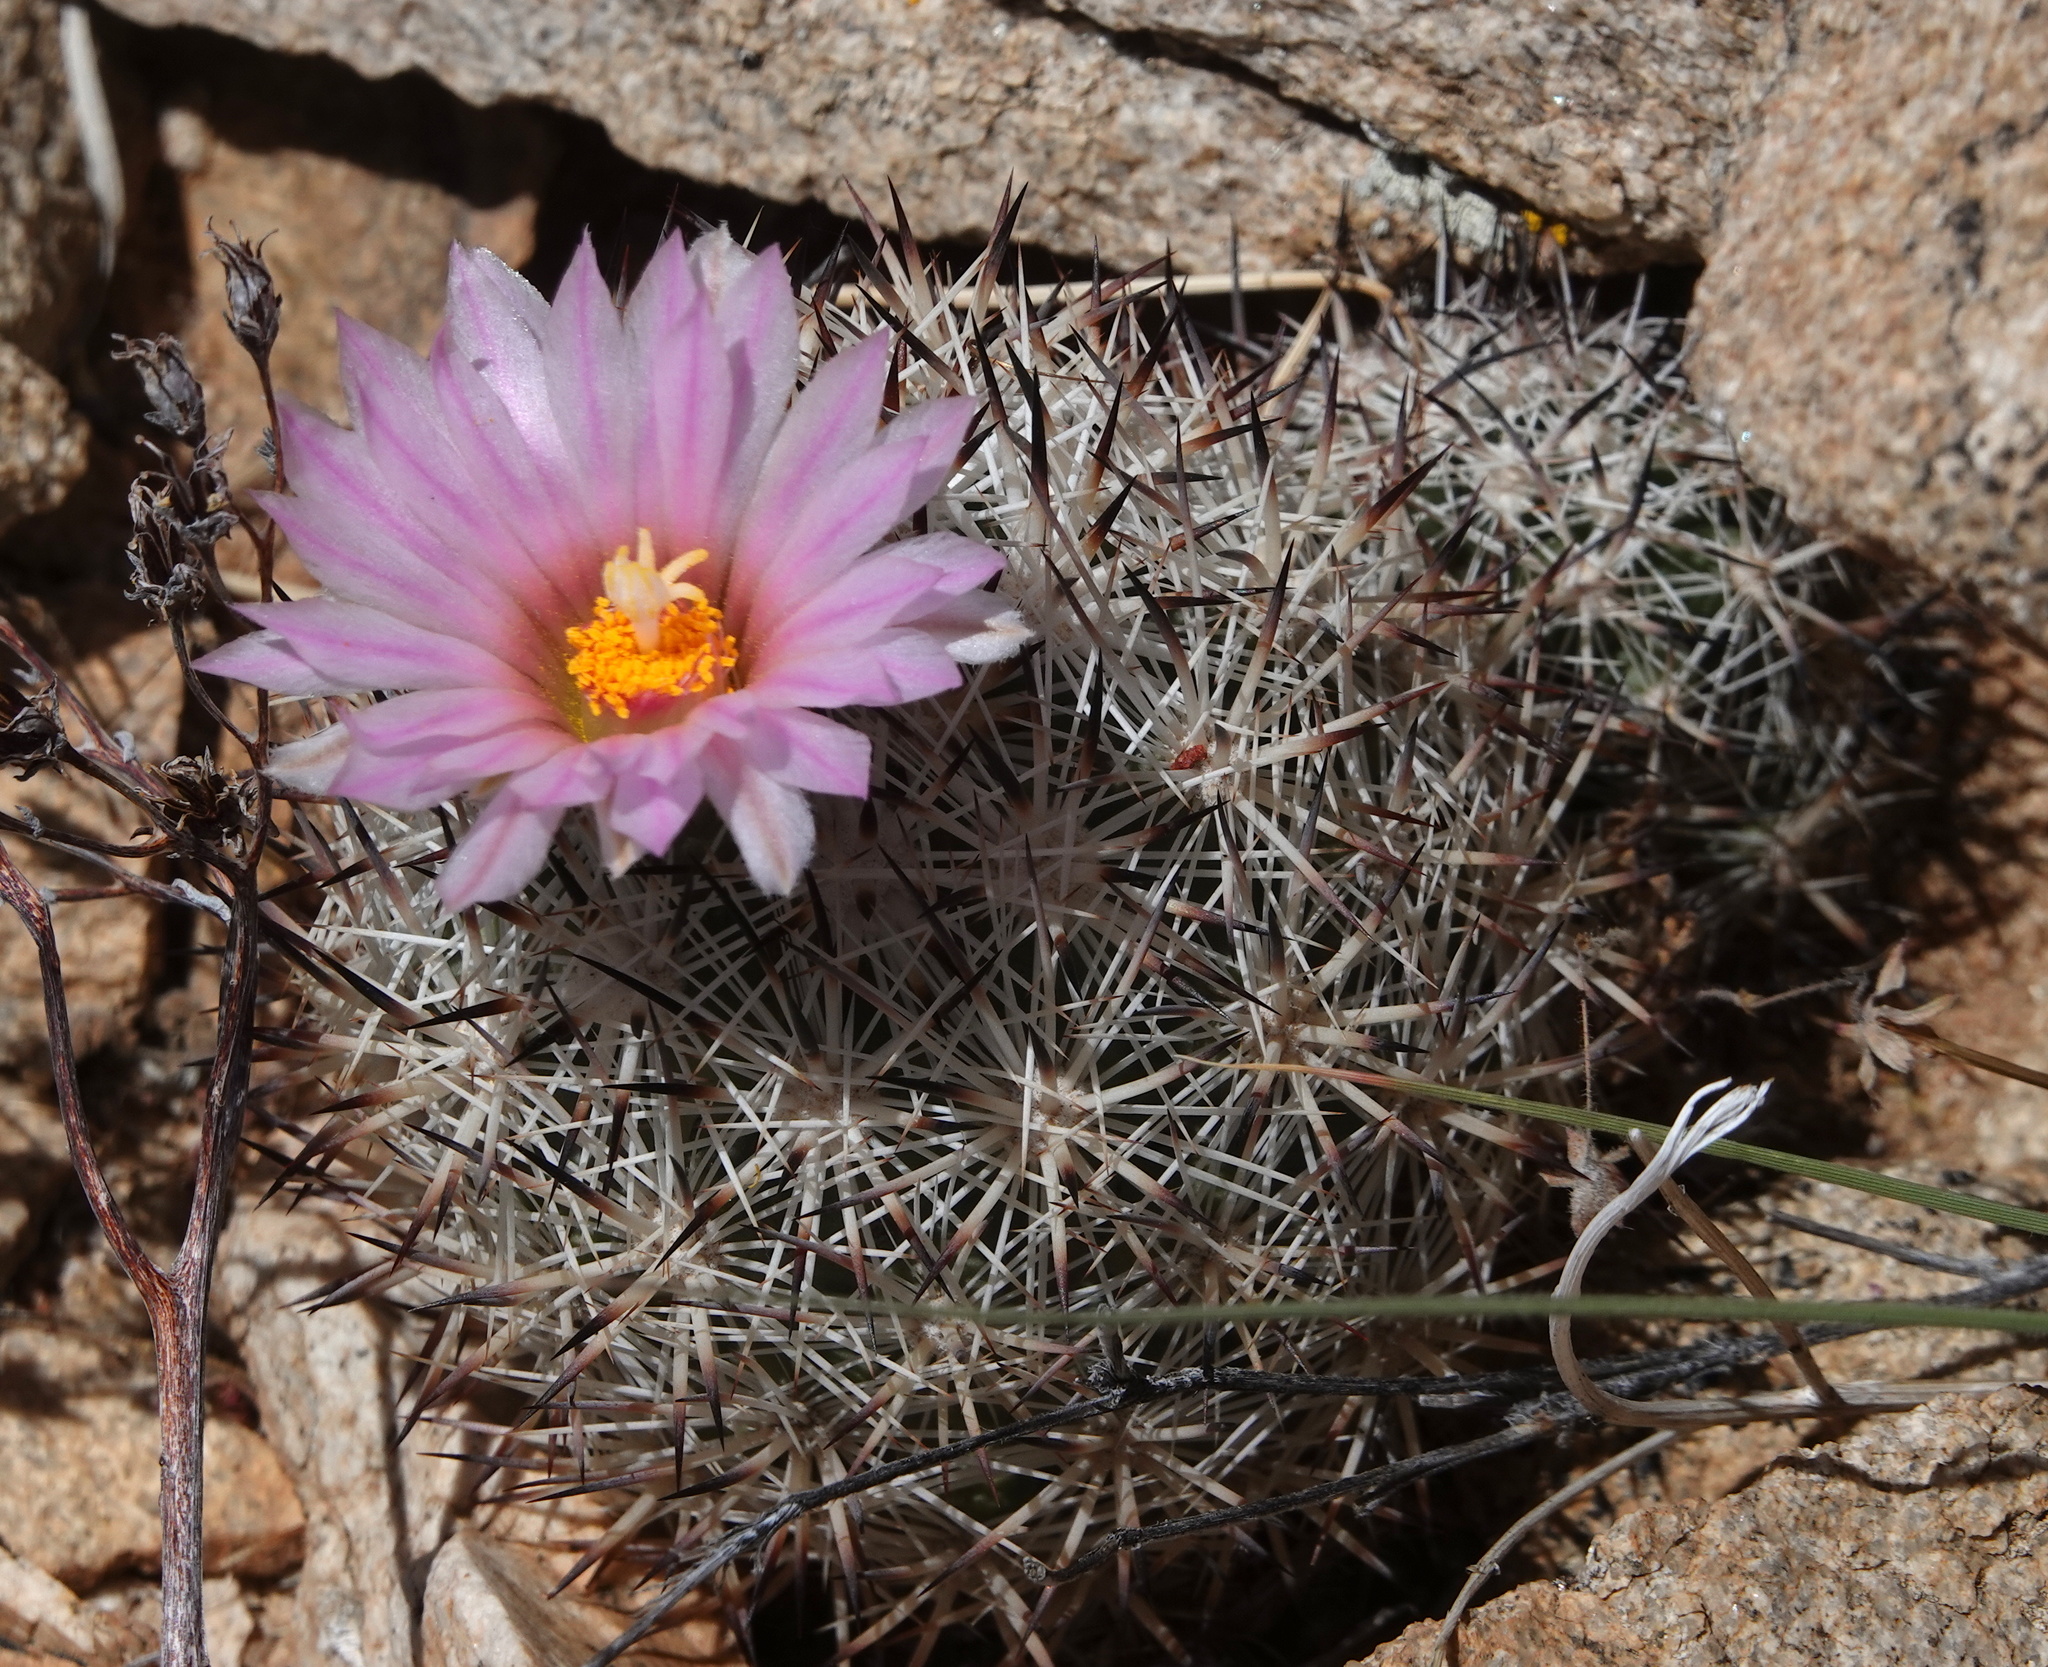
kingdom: Plantae
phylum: Tracheophyta
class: Magnoliopsida
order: Caryophyllales
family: Cactaceae
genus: Pelecyphora
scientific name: Pelecyphora alversonii
